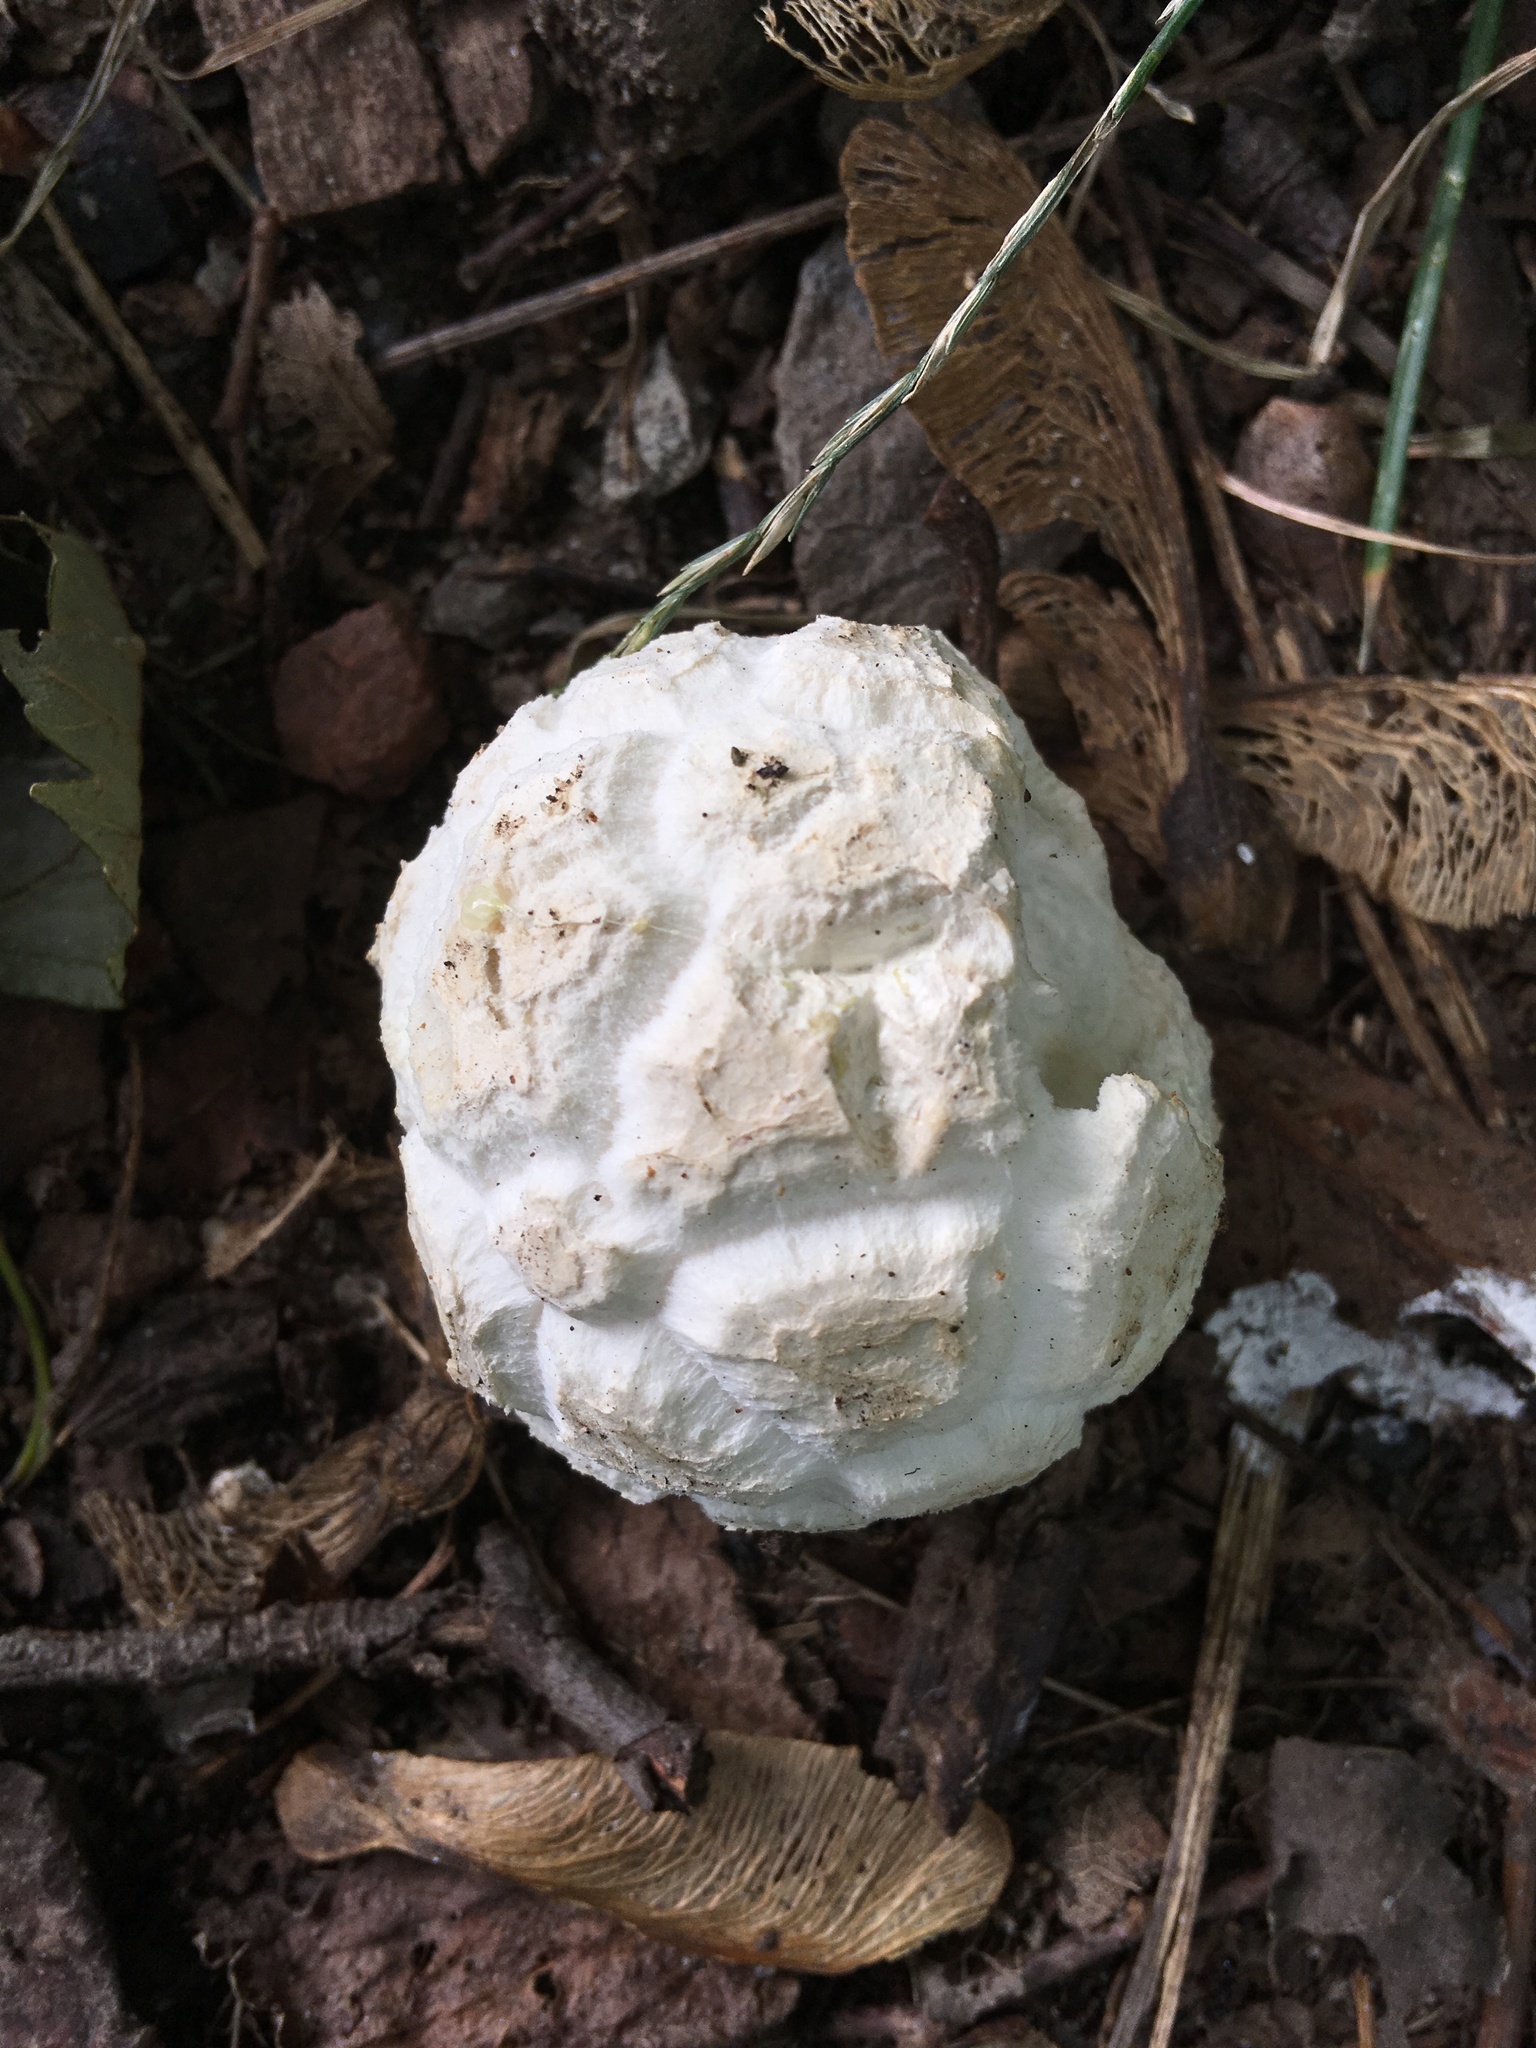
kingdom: Fungi
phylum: Basidiomycota
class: Agaricomycetes
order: Agaricales
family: Agaricaceae
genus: Mycenastrum
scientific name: Mycenastrum corium
